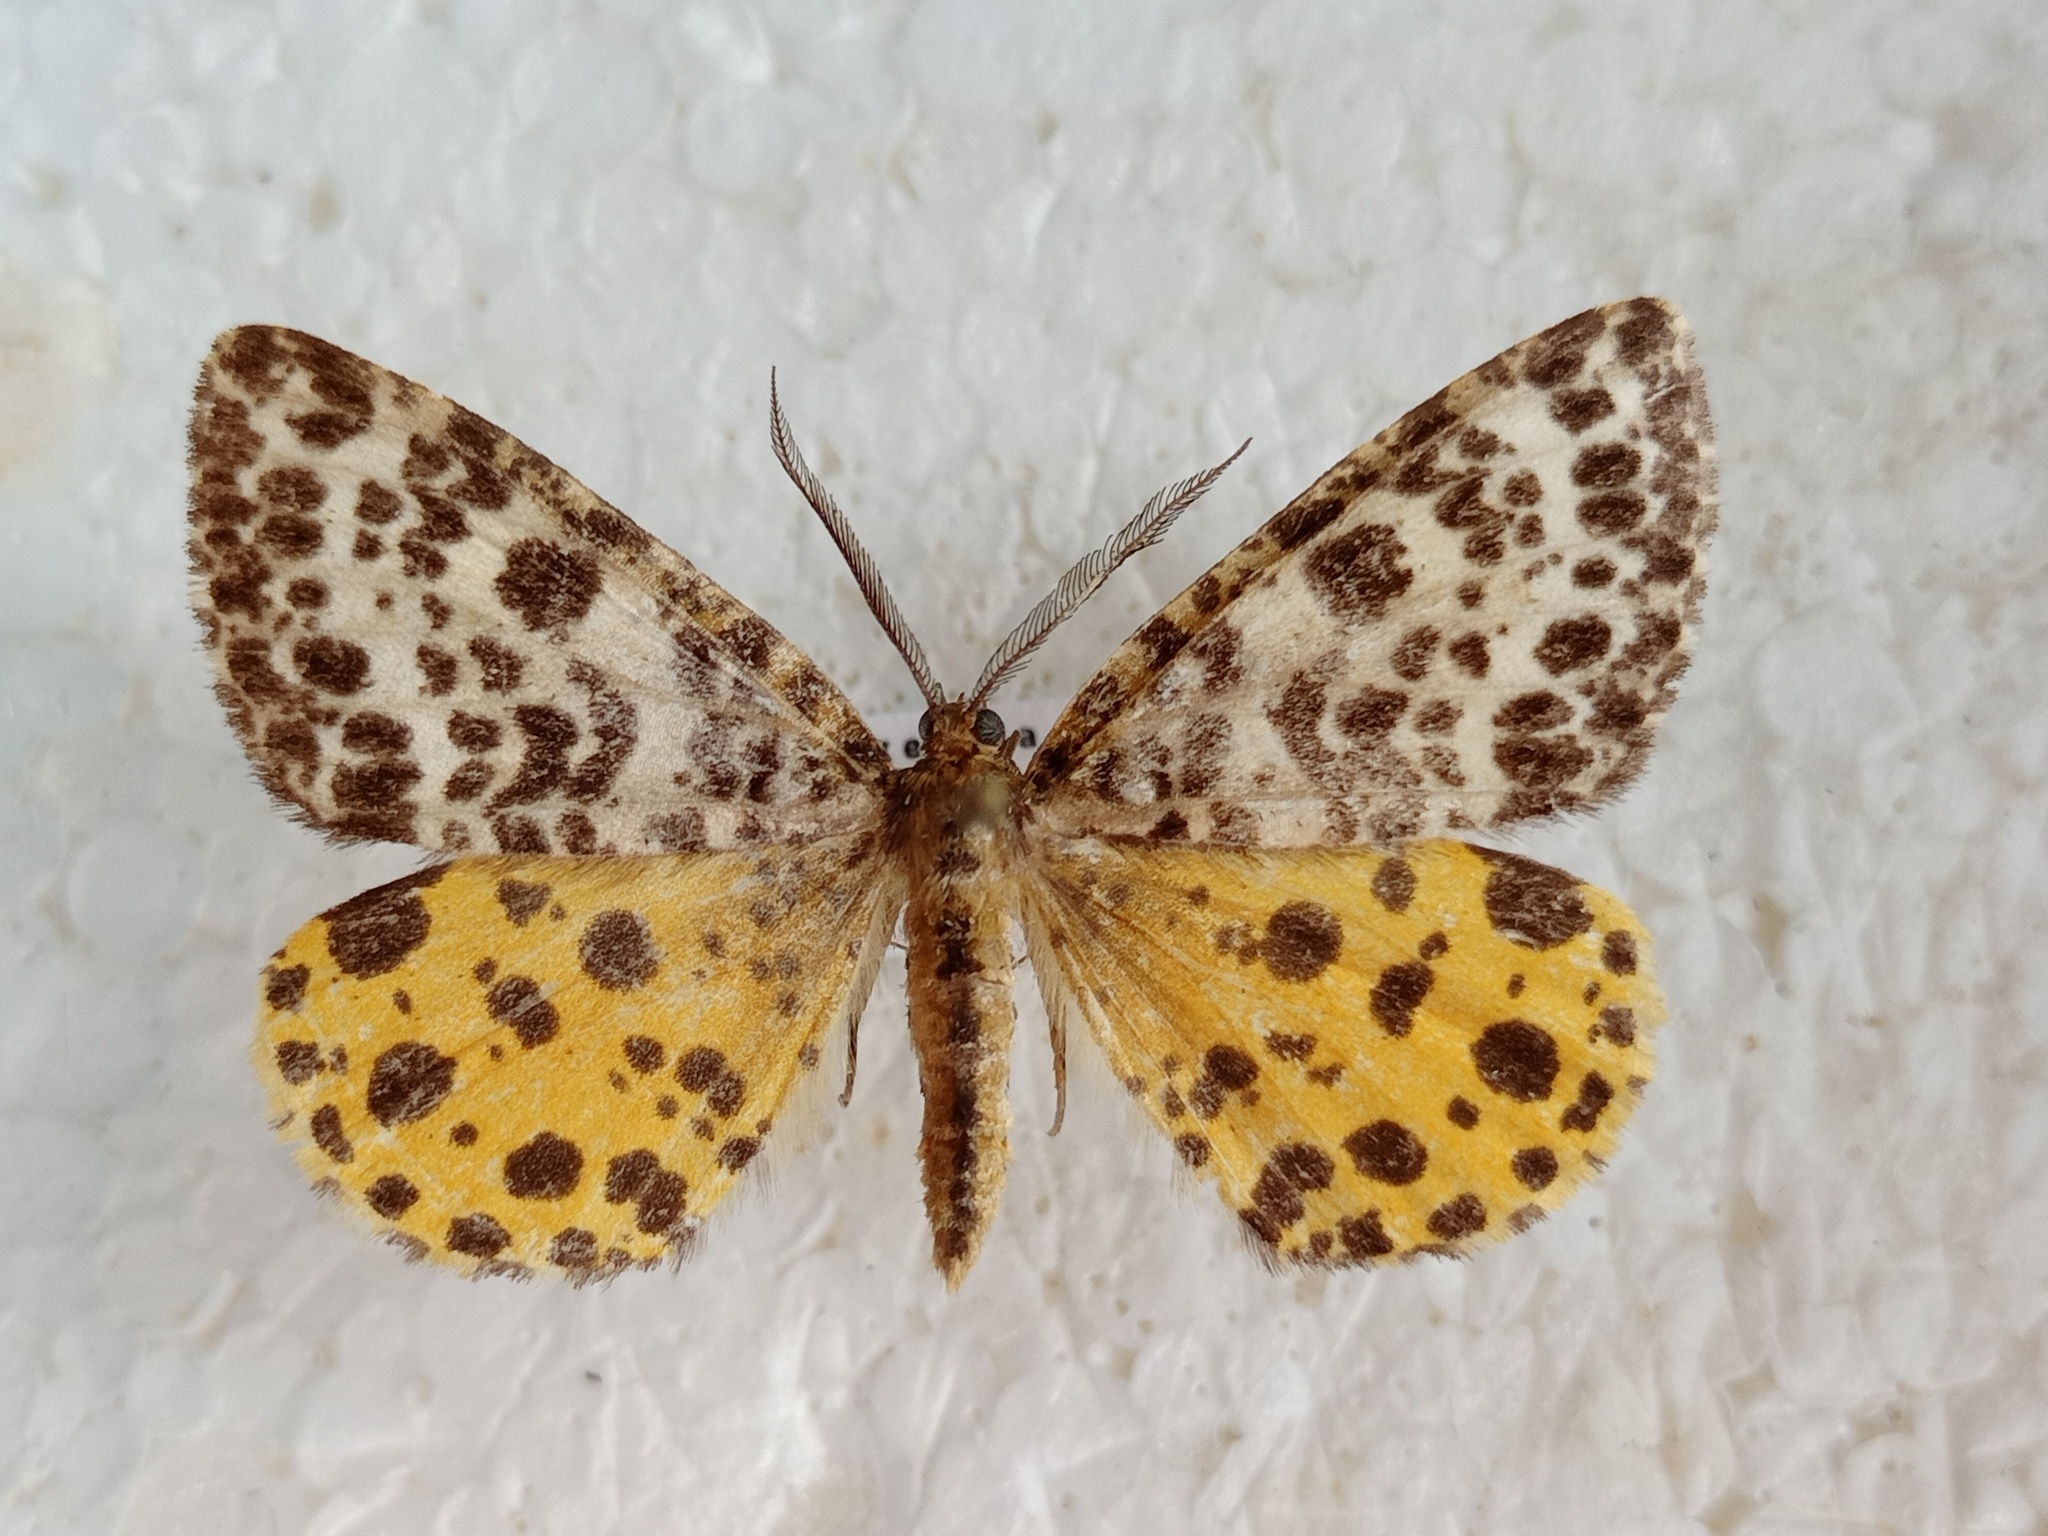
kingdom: Animalia
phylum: Arthropoda
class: Insecta
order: Lepidoptera
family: Geometridae
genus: Arichanna
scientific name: Arichanna melanaria
